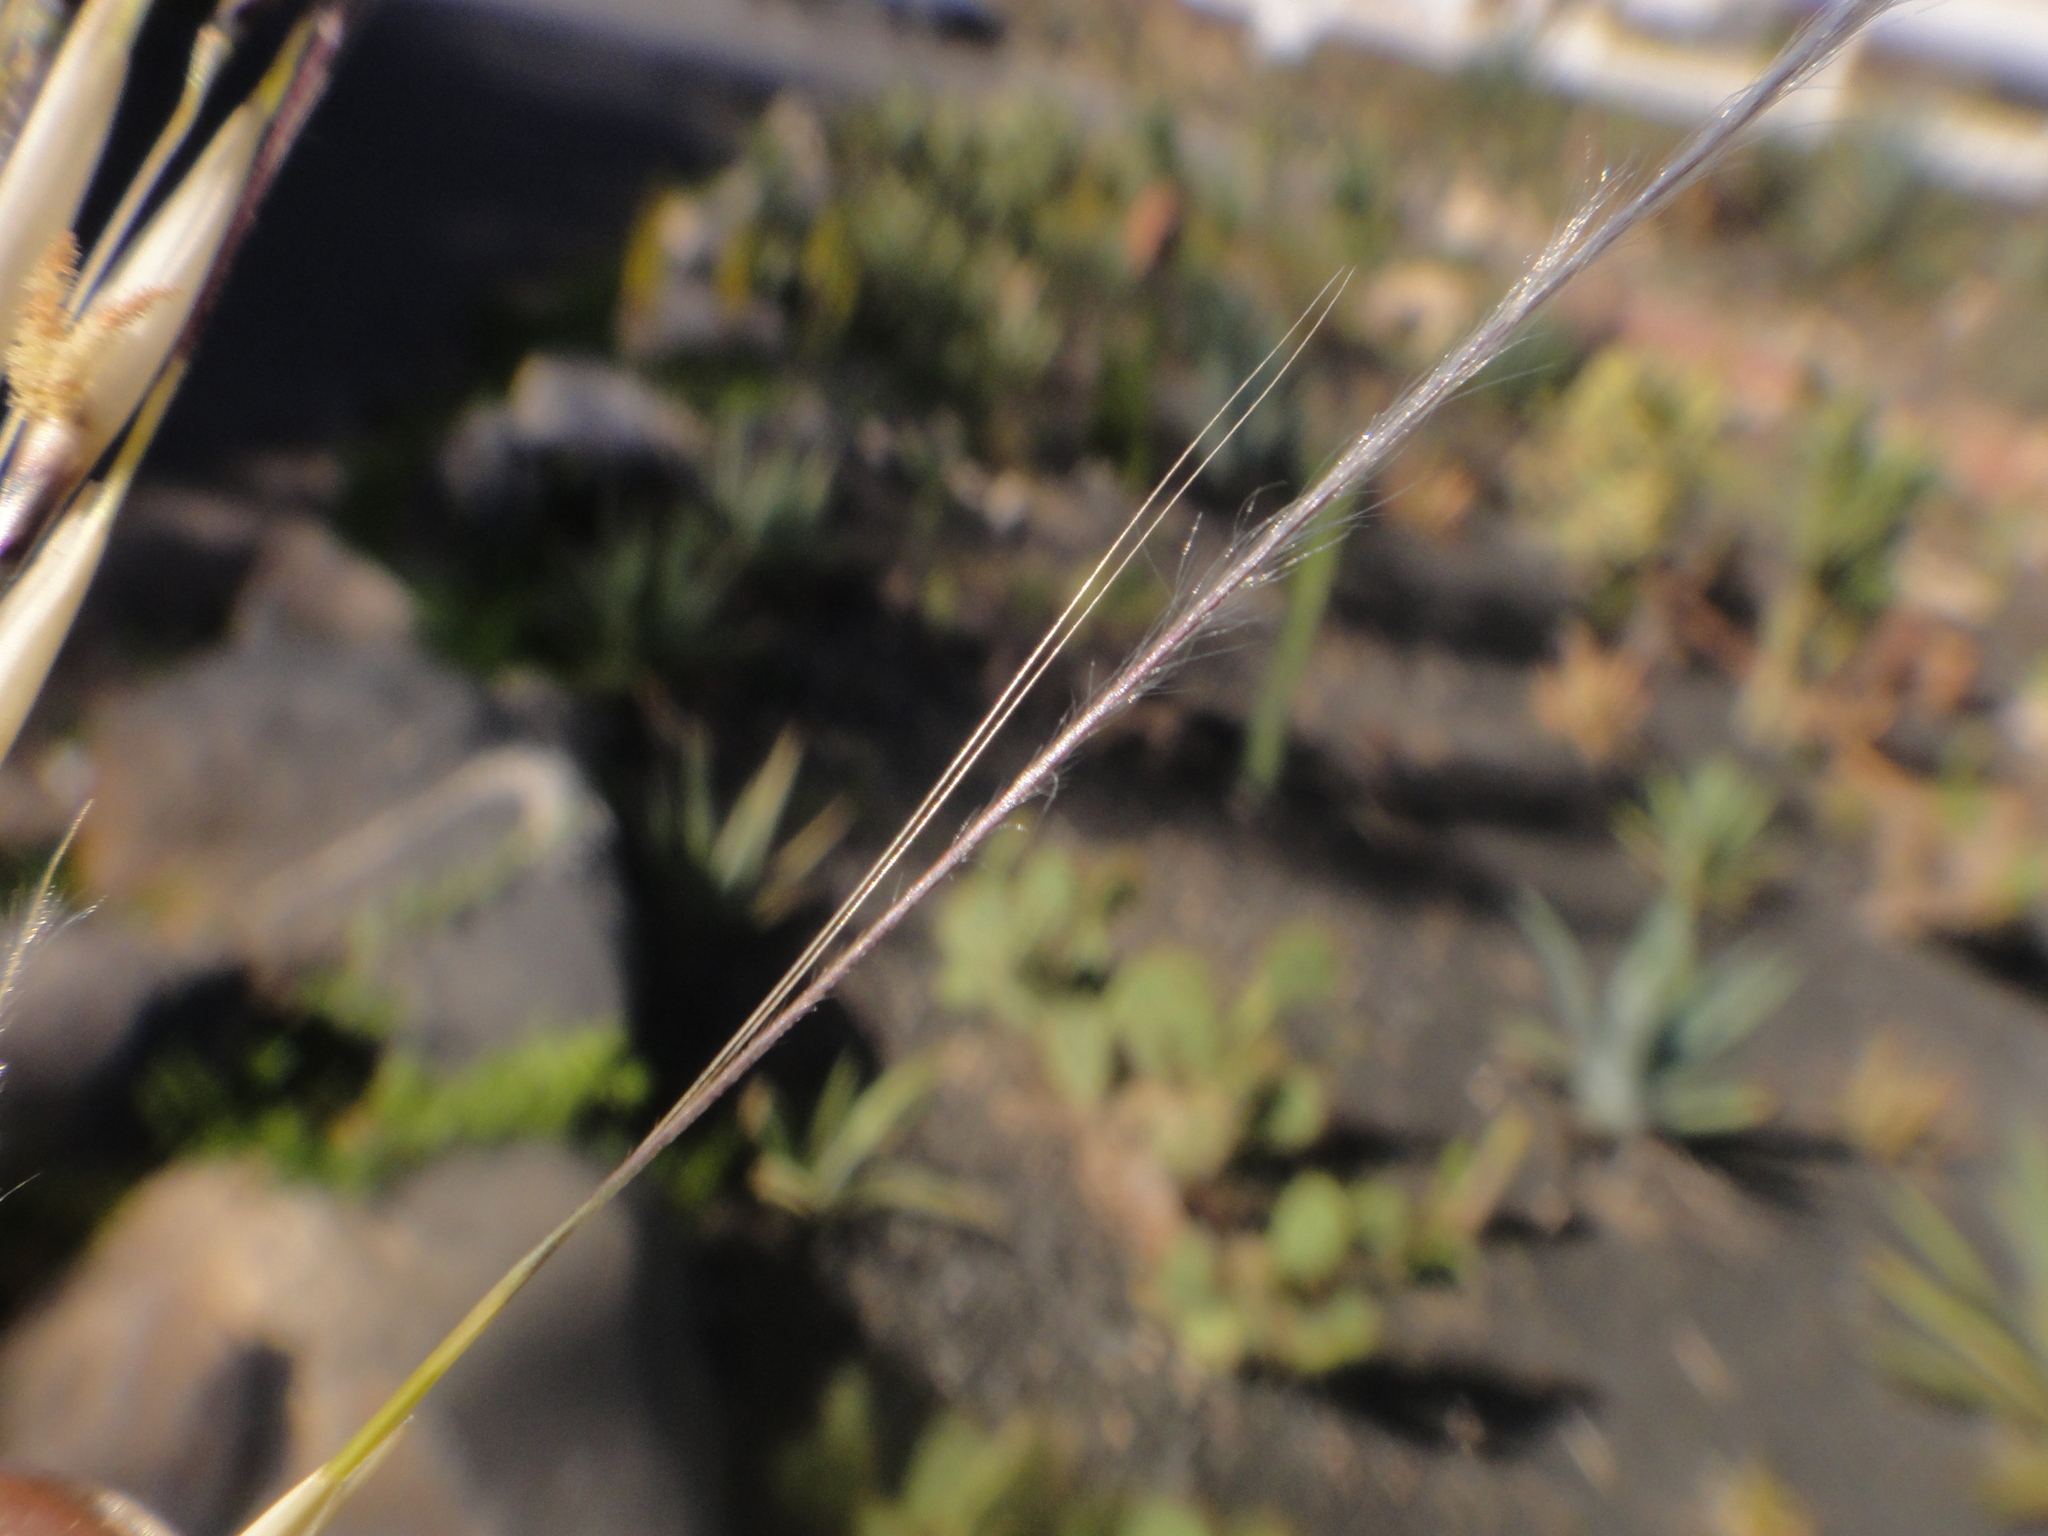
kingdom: Plantae
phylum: Tracheophyta
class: Liliopsida
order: Poales
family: Poaceae
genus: Stipagrostis
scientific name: Stipagrostis ciliata
